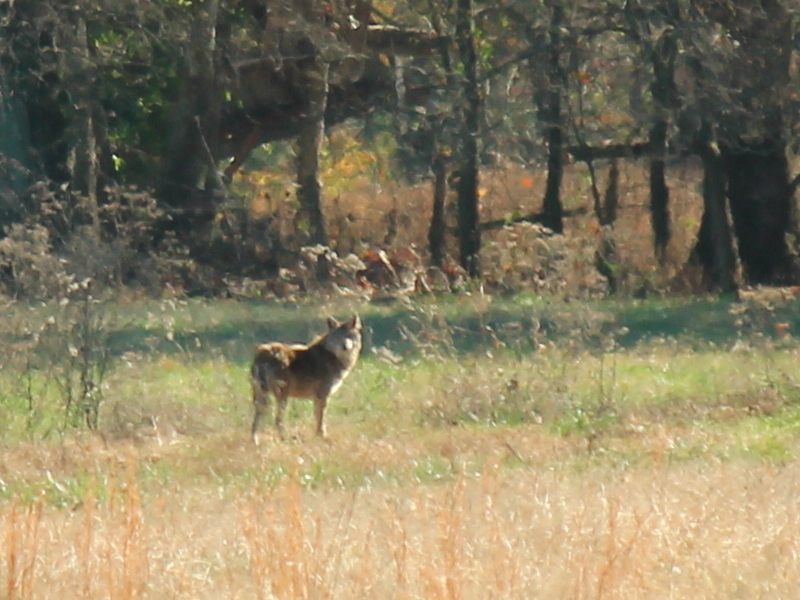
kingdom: Animalia
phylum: Chordata
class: Mammalia
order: Carnivora
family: Canidae
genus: Canis
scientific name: Canis latrans
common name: Coyote
